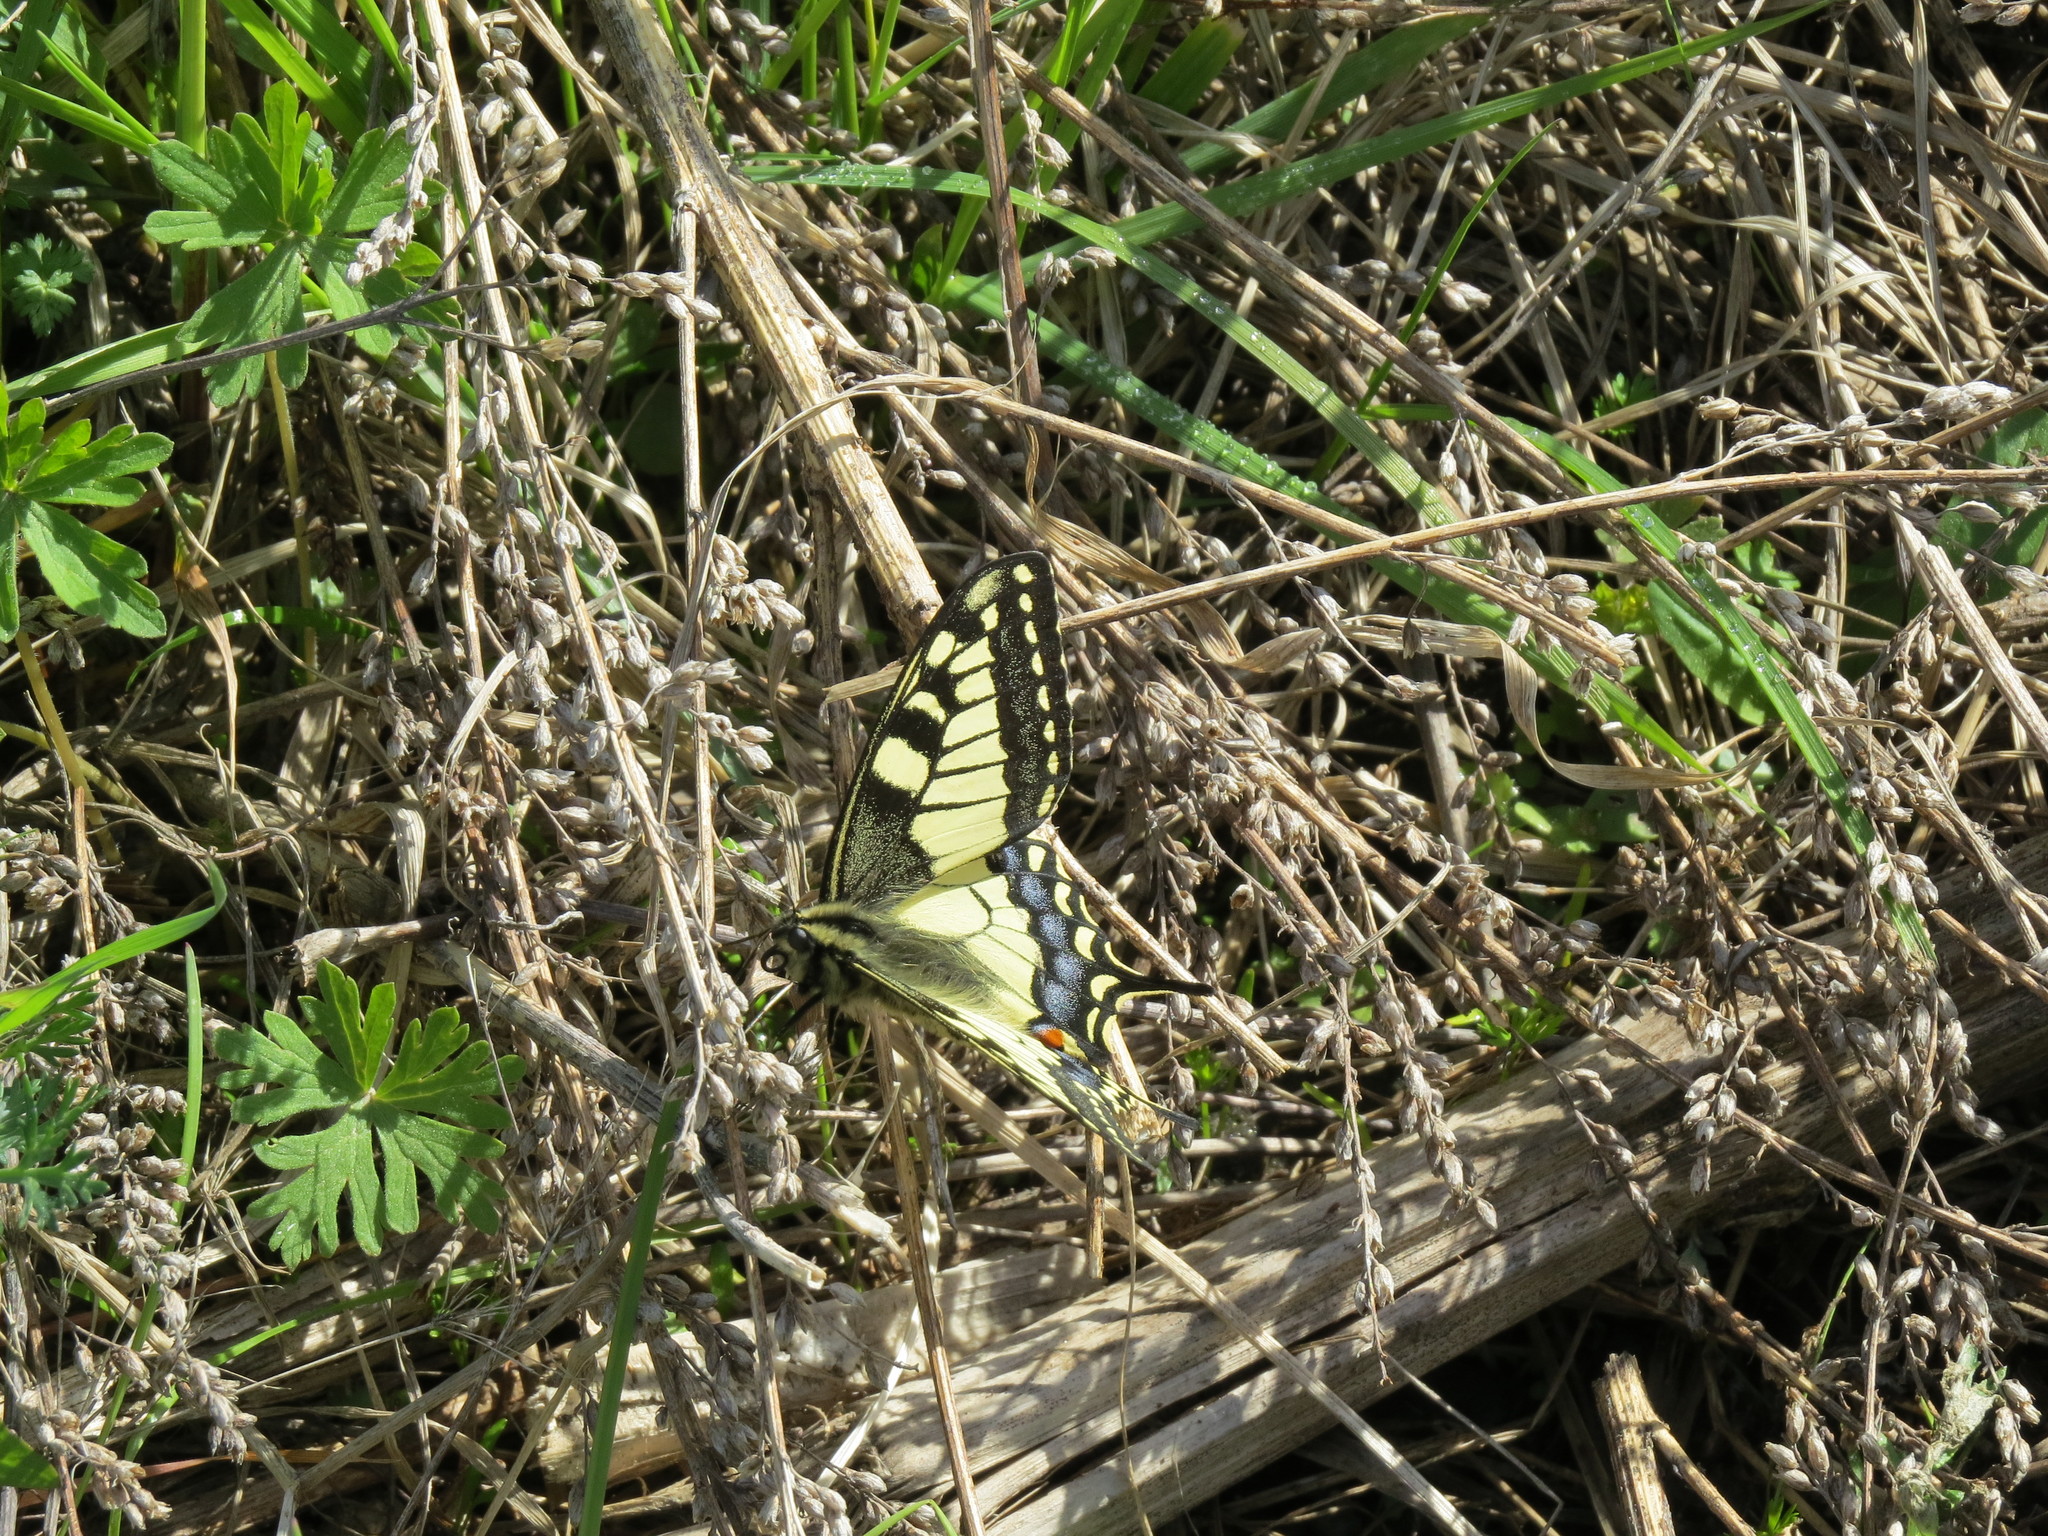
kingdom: Animalia
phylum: Arthropoda
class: Insecta
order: Lepidoptera
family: Papilionidae
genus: Papilio
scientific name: Papilio machaon
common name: Swallowtail
